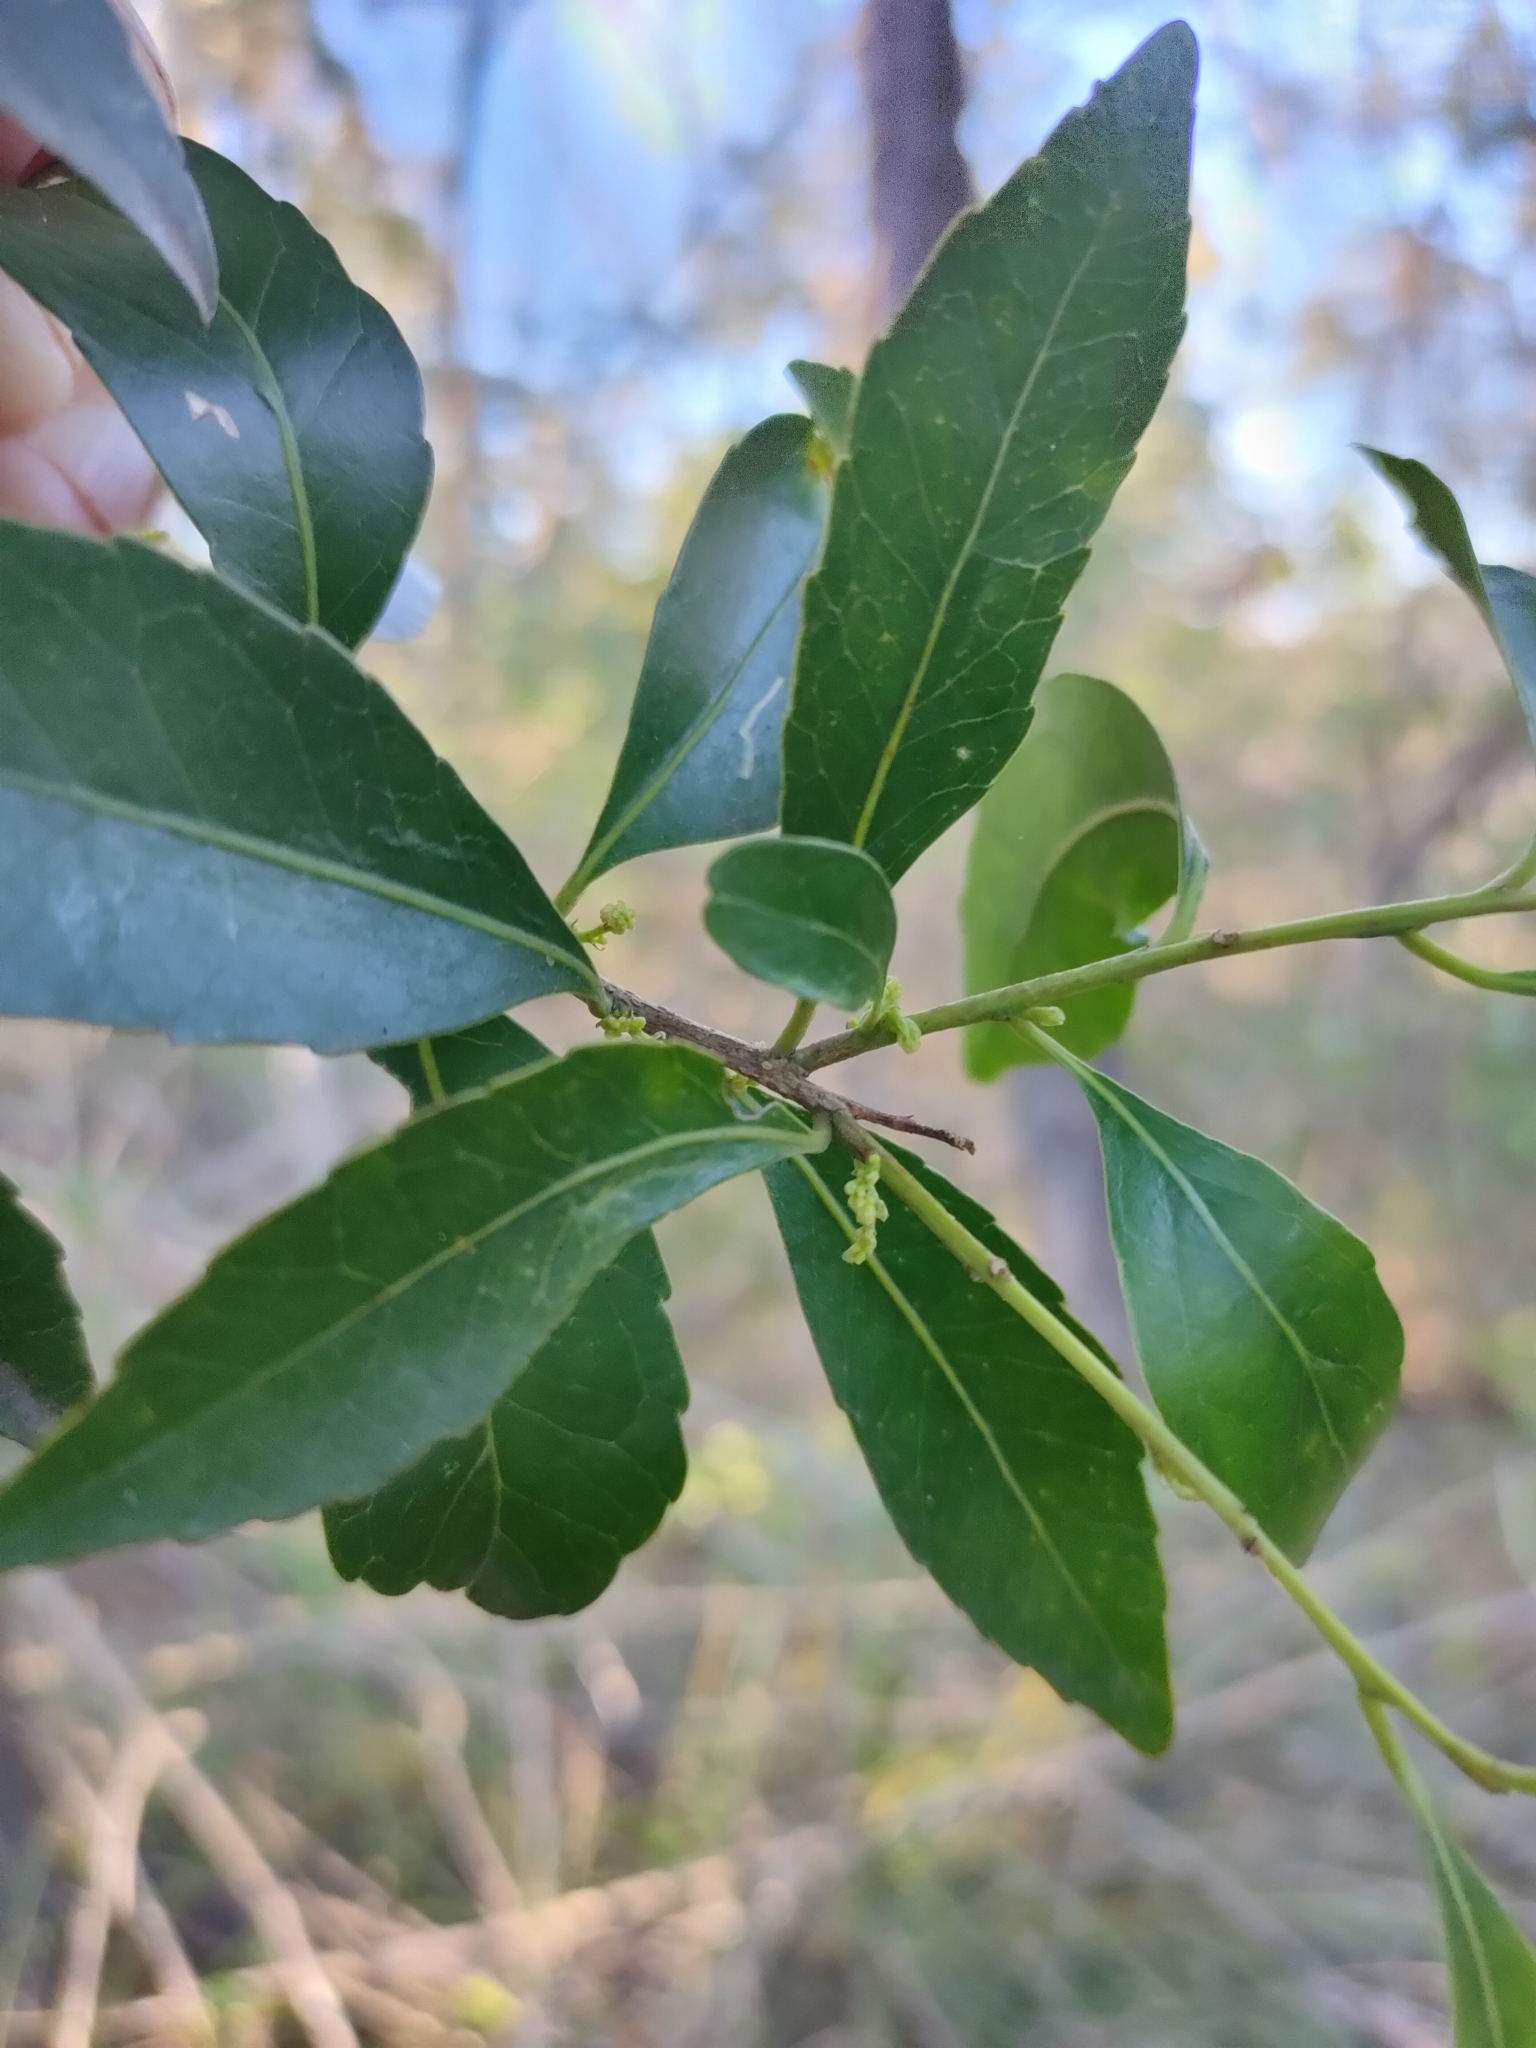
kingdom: Plantae
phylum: Tracheophyta
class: Magnoliopsida
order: Oxalidales
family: Elaeocarpaceae
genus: Elaeocarpus
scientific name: Elaeocarpus obovatus
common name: Freckled oliveberry
